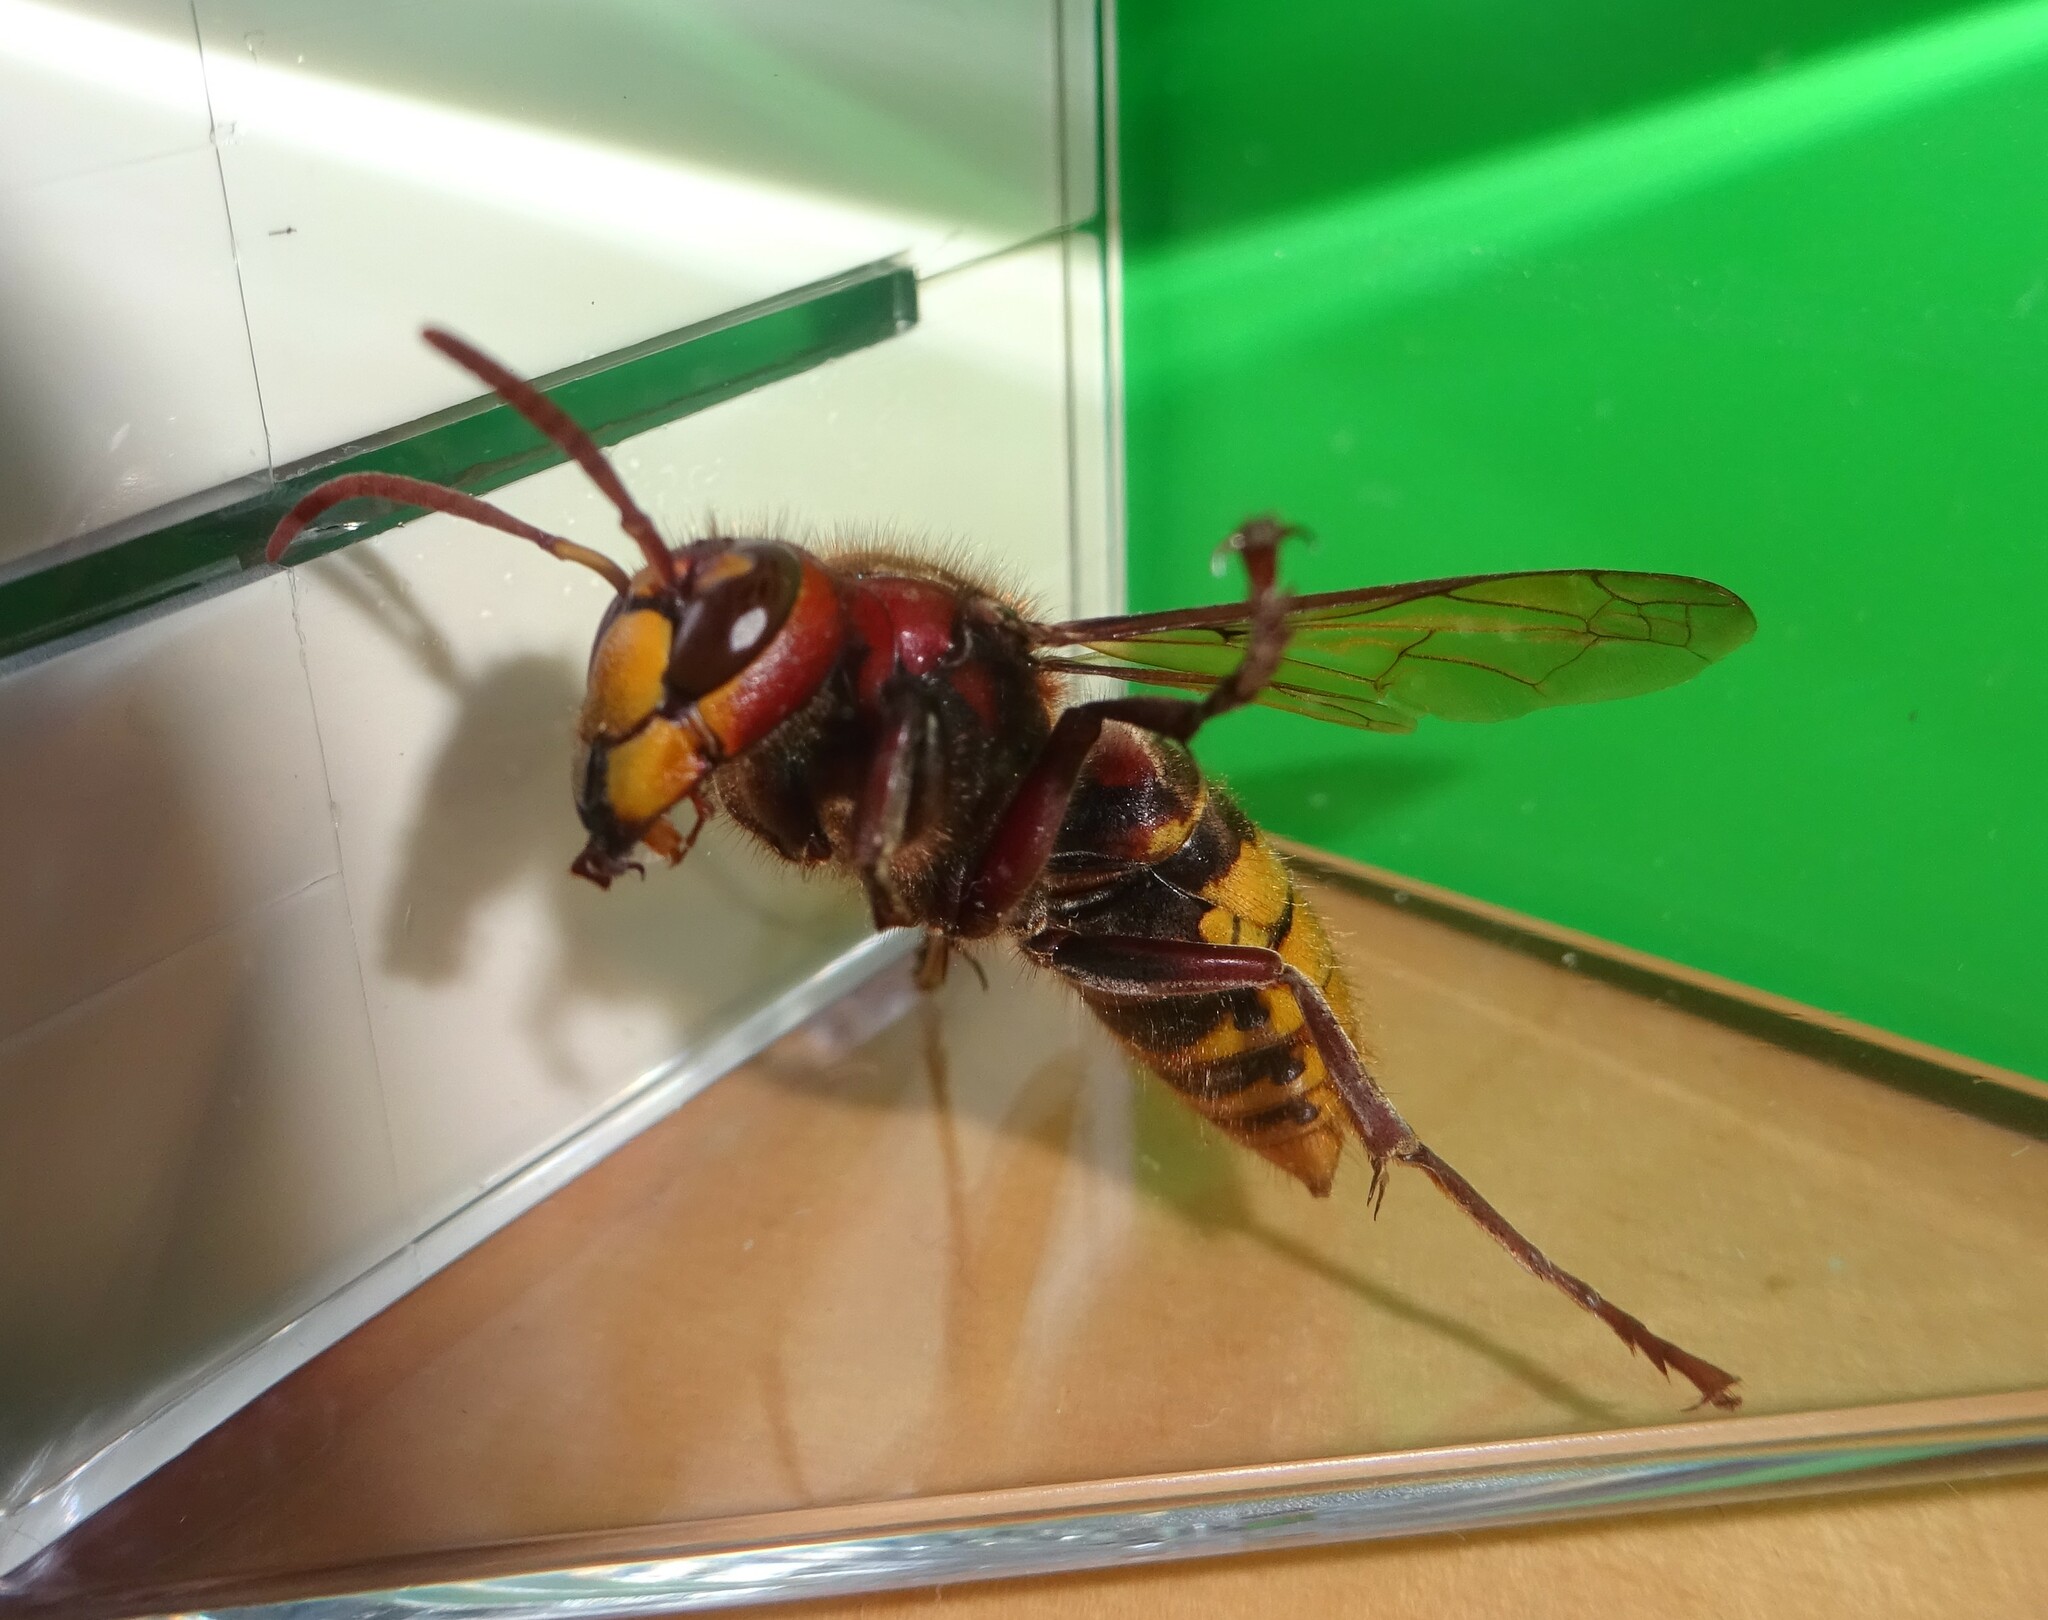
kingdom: Animalia
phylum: Arthropoda
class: Insecta
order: Hymenoptera
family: Vespidae
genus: Vespa
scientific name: Vespa crabro
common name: Hornet
